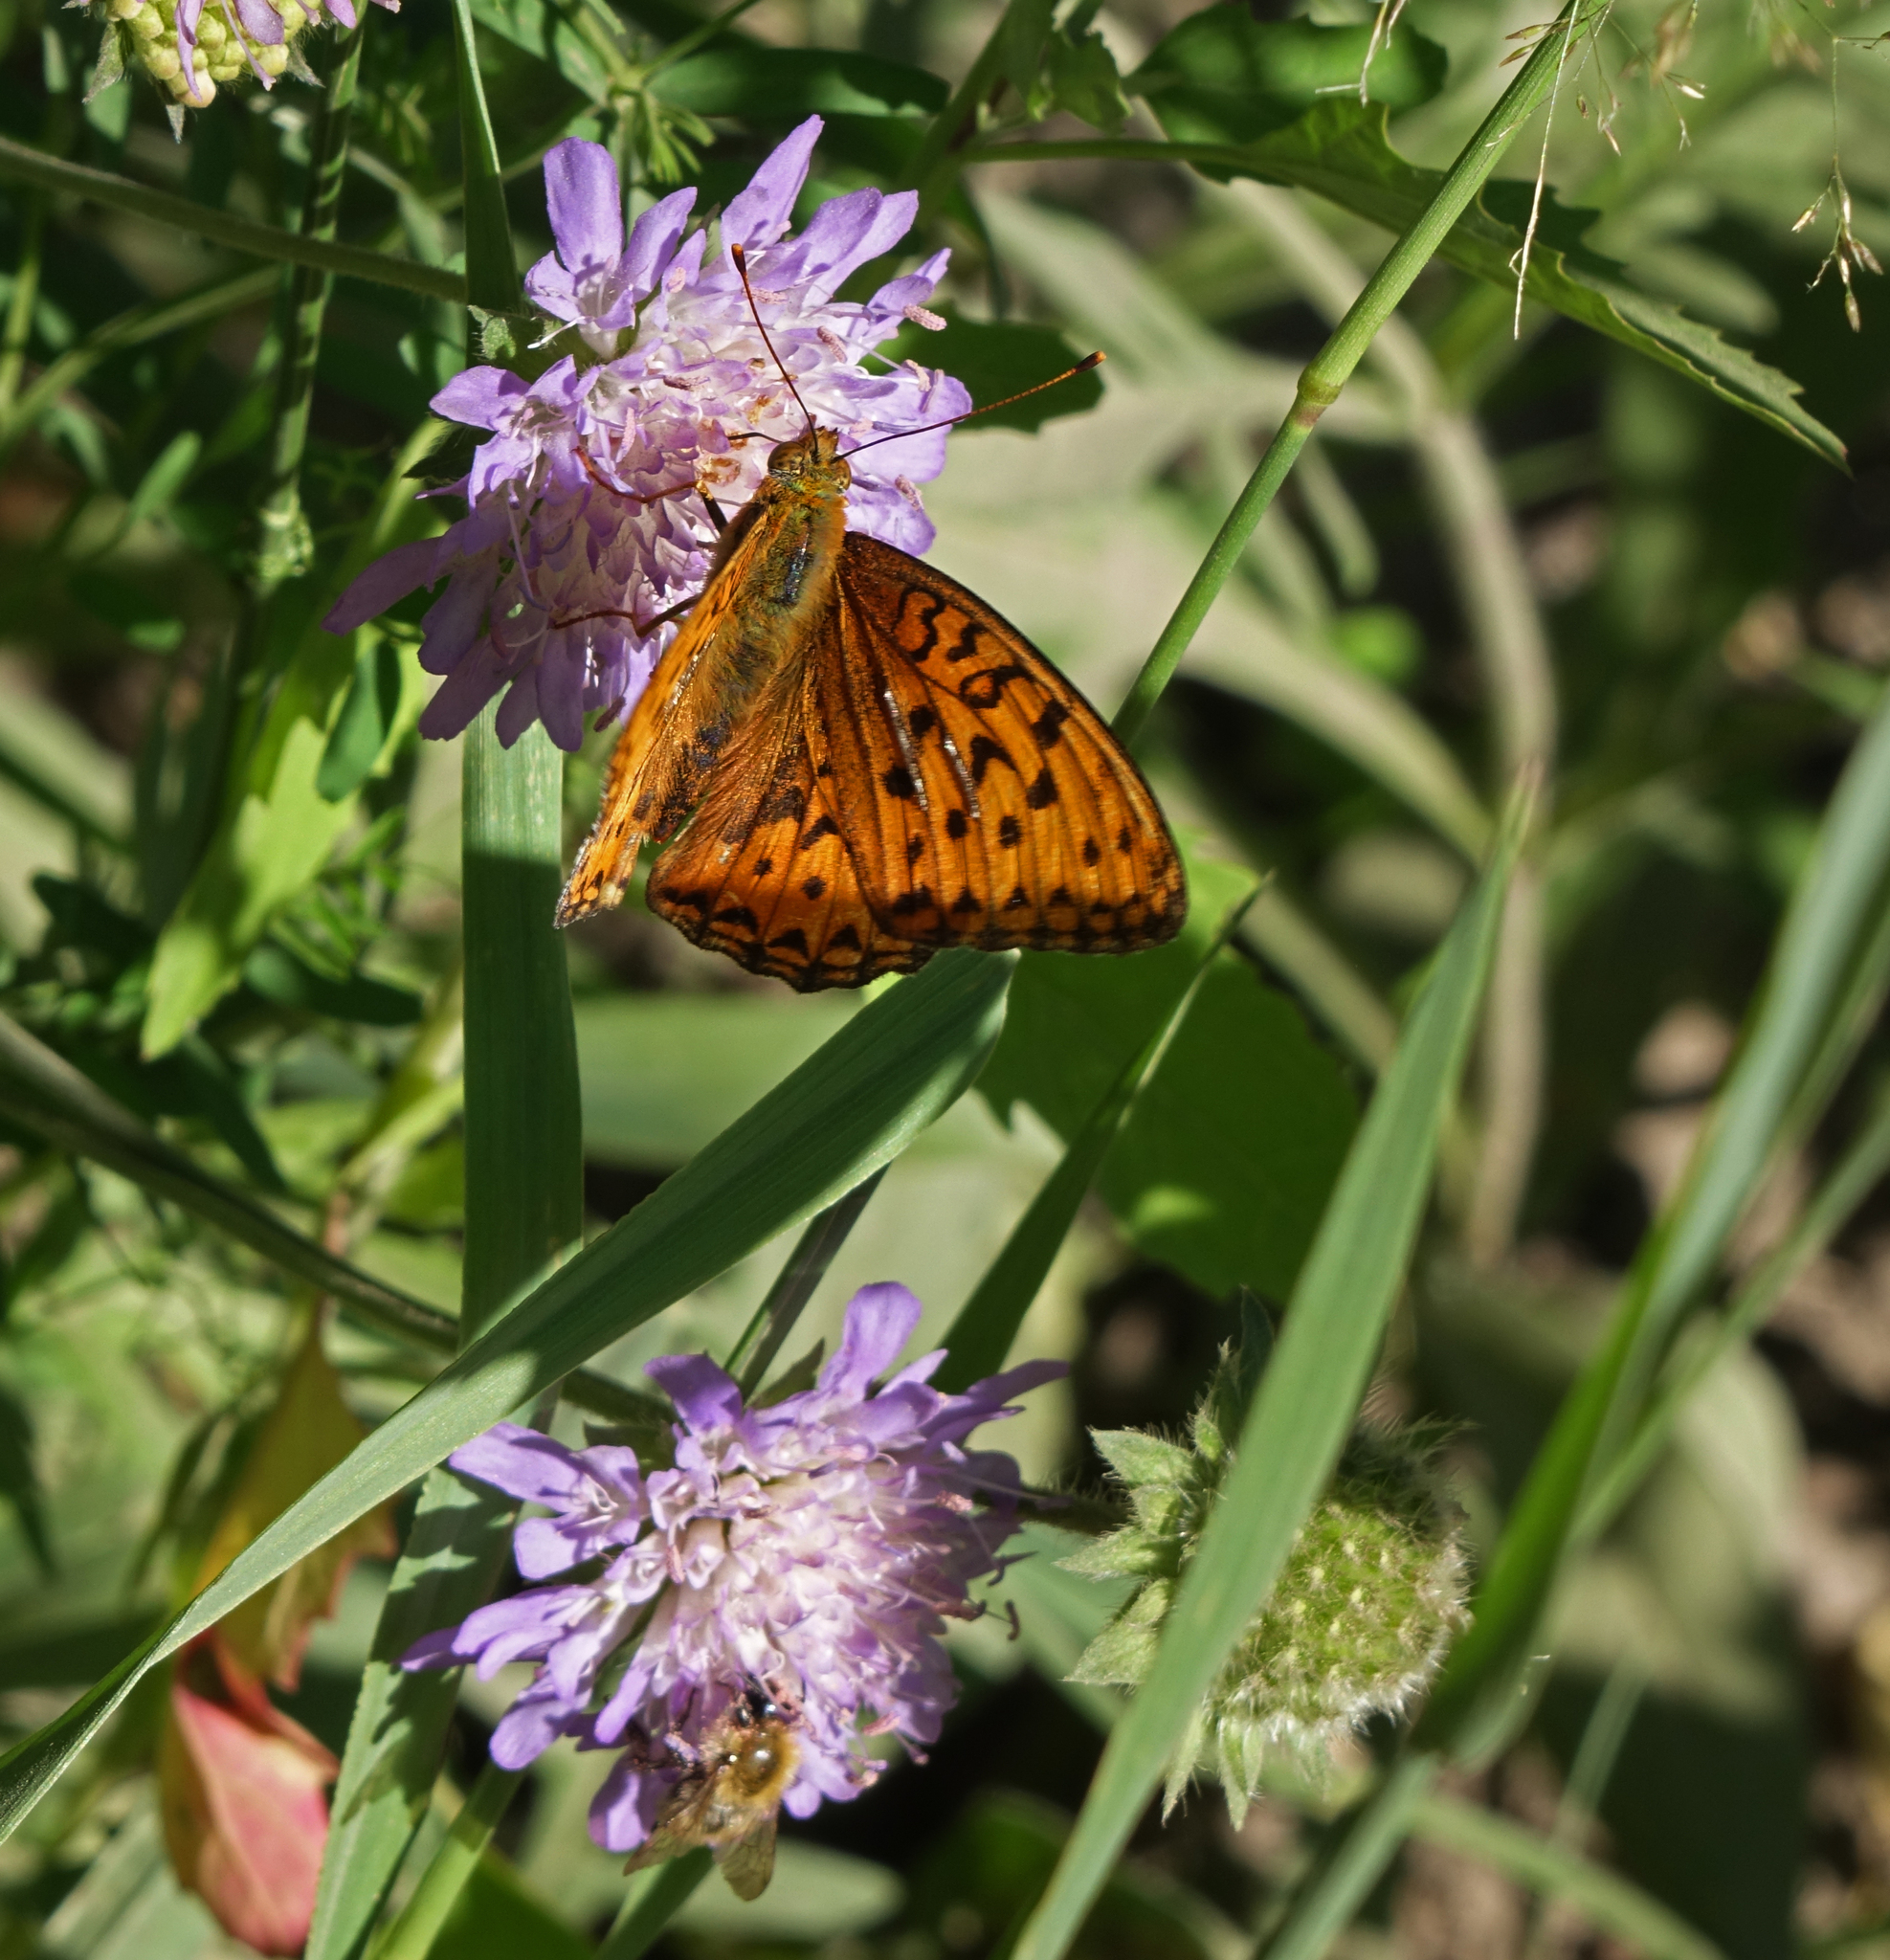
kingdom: Plantae
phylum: Tracheophyta
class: Magnoliopsida
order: Dipsacales
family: Caprifoliaceae
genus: Knautia
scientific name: Knautia arvensis
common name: Field scabiosa
